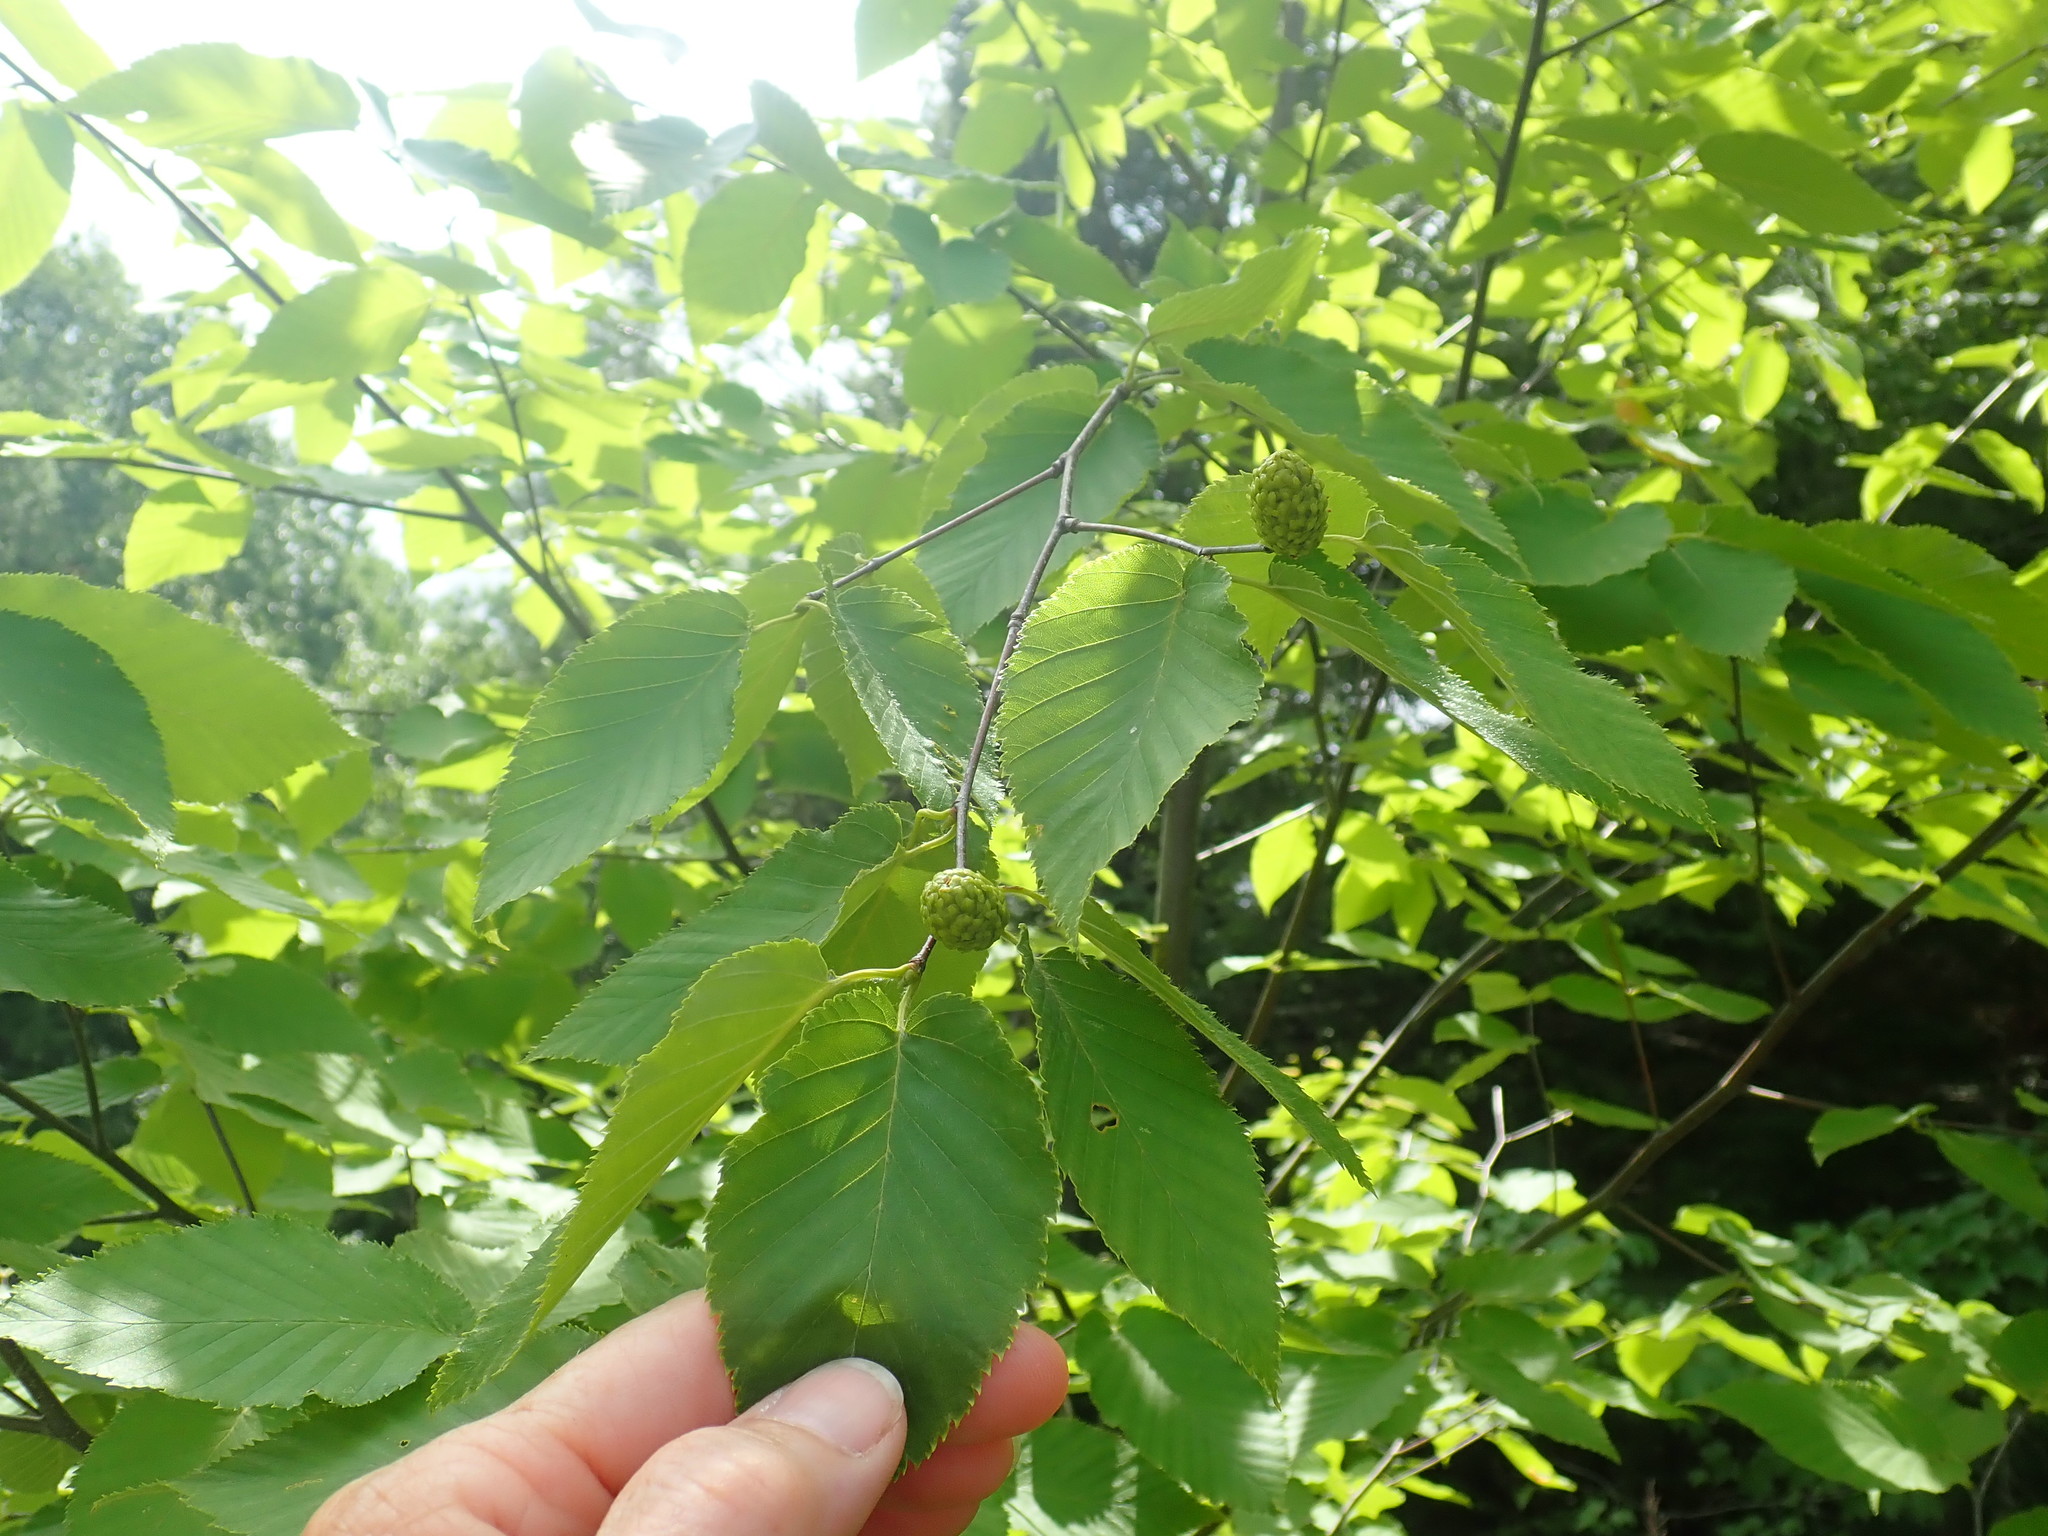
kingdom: Plantae
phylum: Tracheophyta
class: Magnoliopsida
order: Fagales
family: Betulaceae
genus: Betula
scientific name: Betula lenta
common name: Black birch
